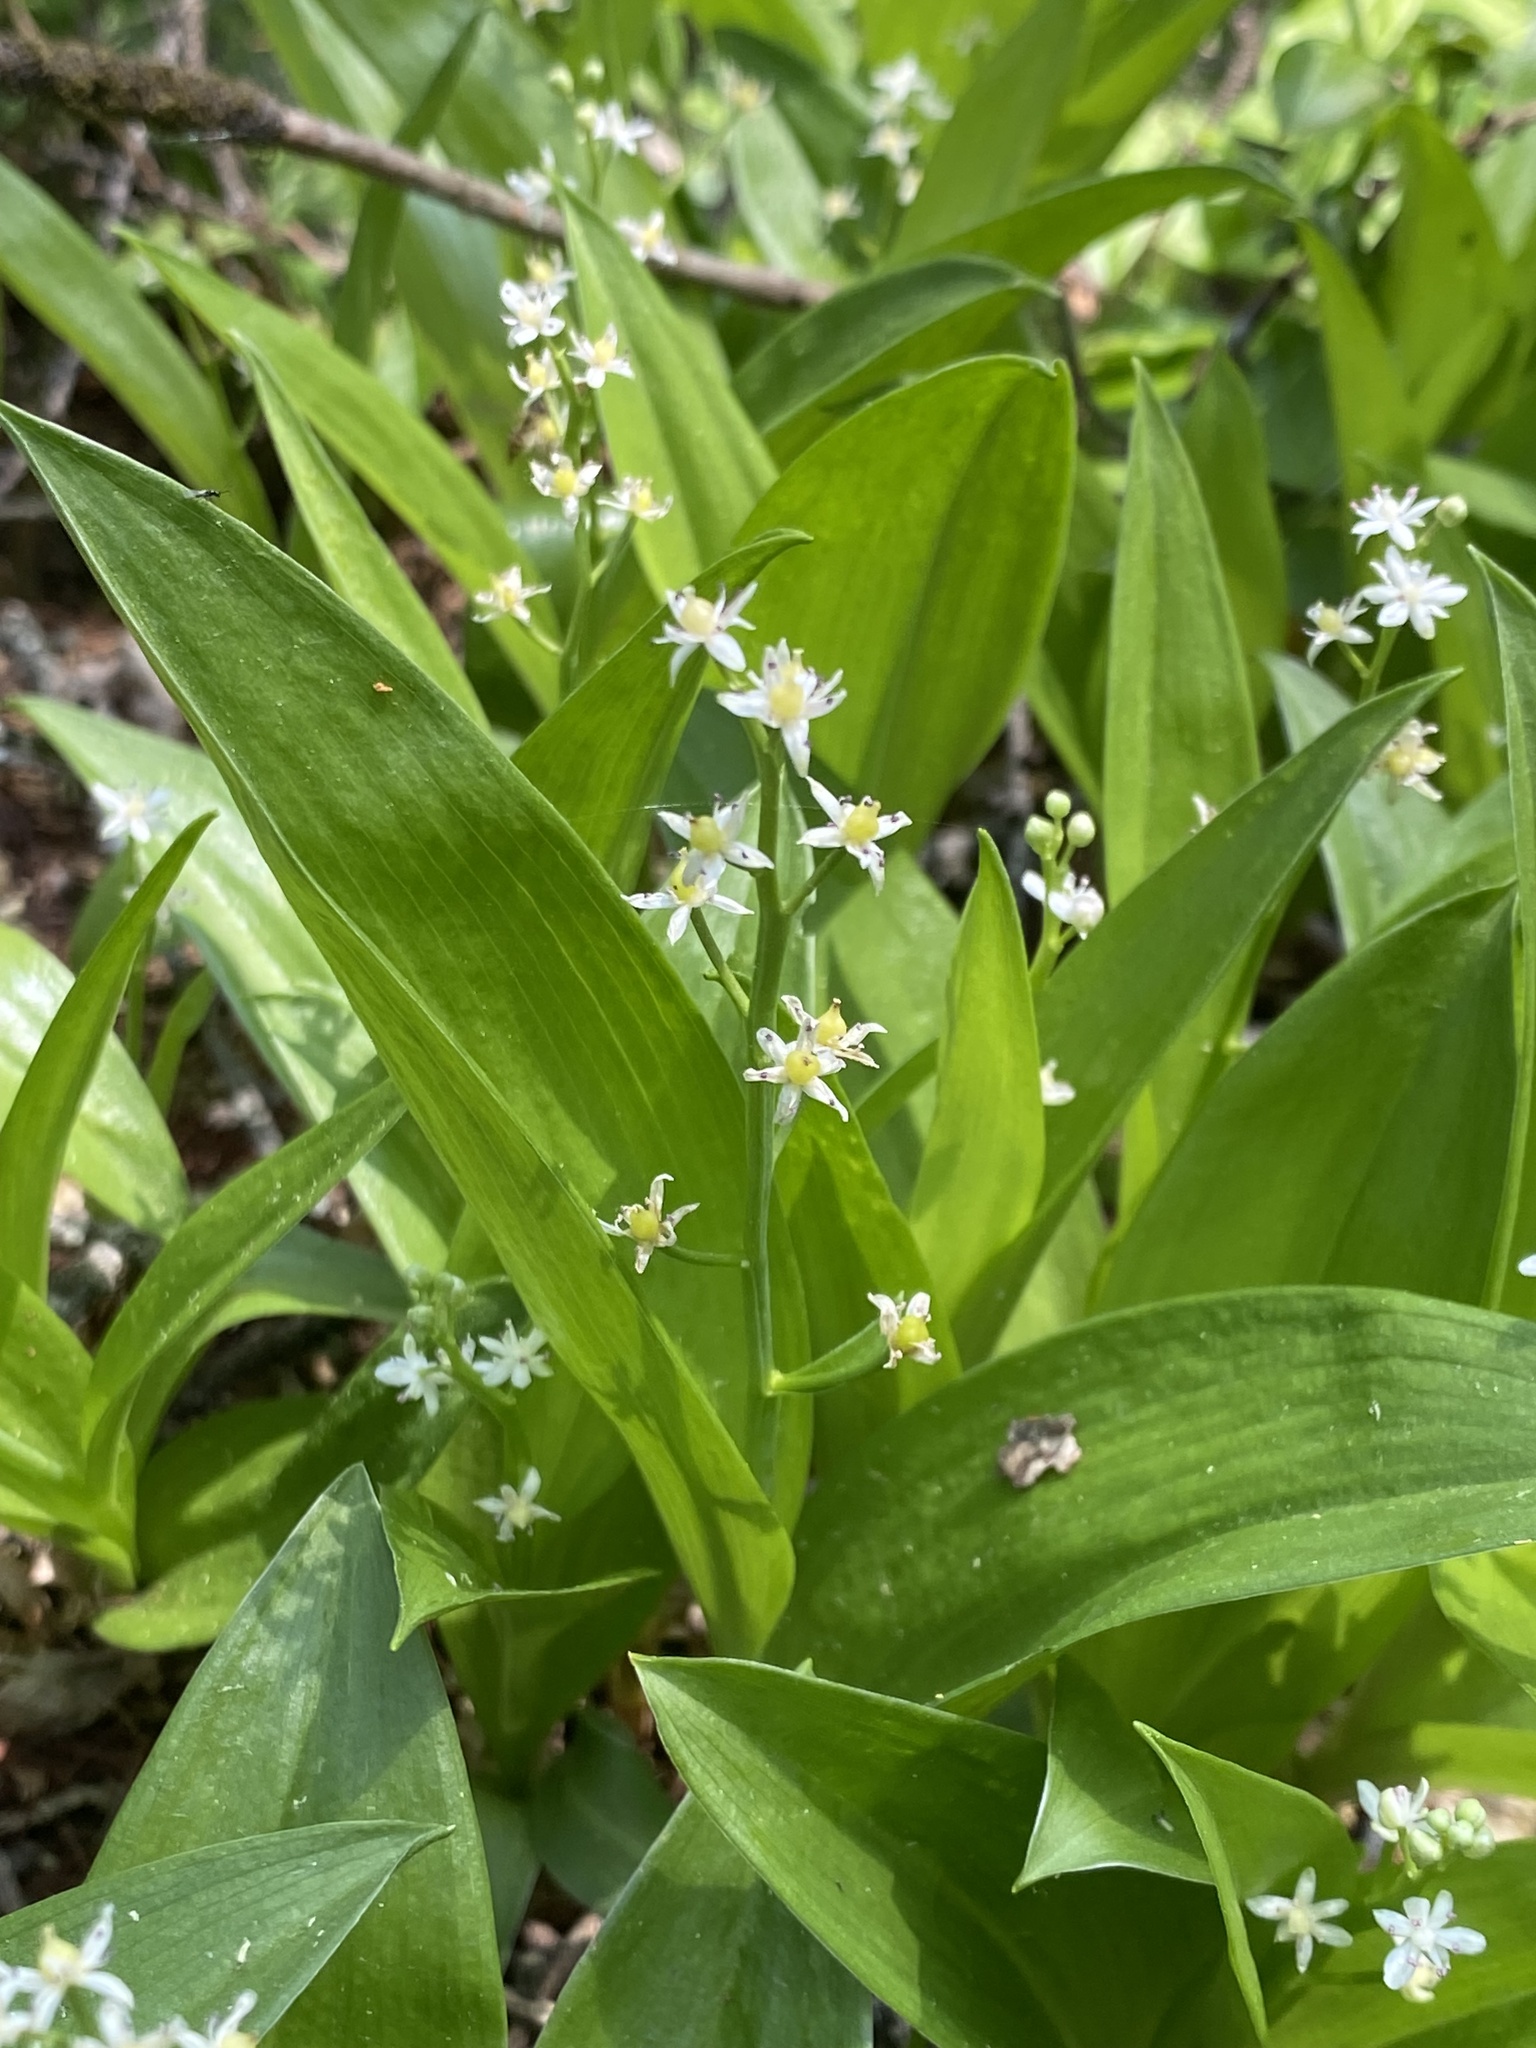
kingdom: Plantae
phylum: Tracheophyta
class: Liliopsida
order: Asparagales
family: Asparagaceae
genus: Maianthemum
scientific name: Maianthemum trifolium
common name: Swamp false solomon's seal
